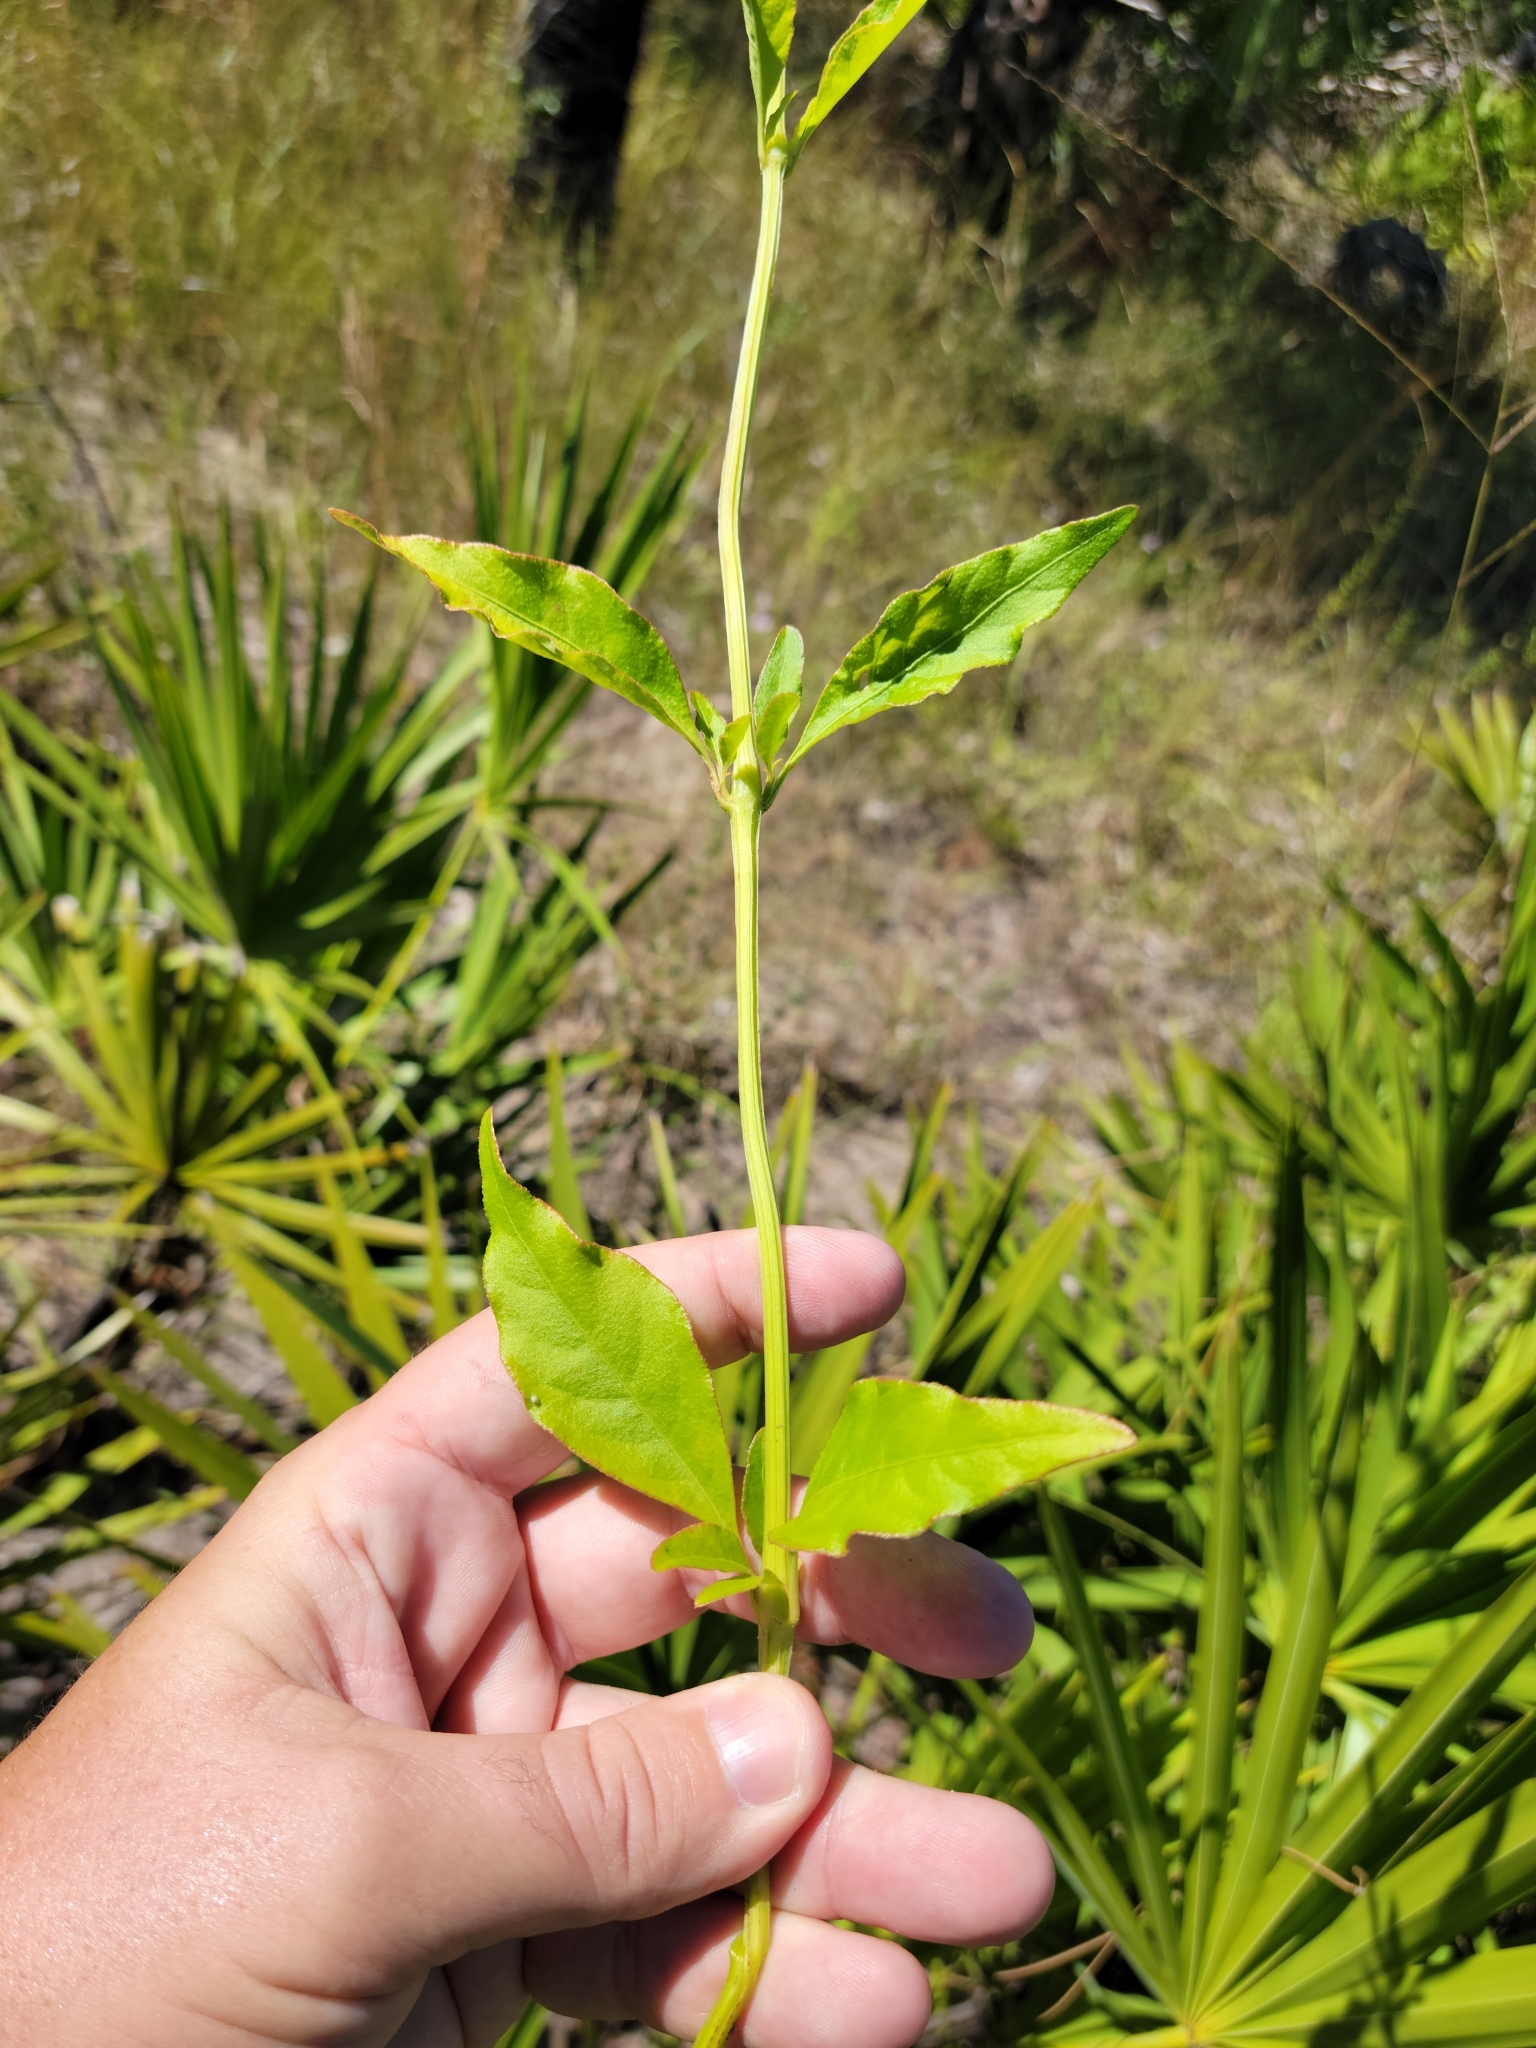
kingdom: Plantae
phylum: Tracheophyta
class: Magnoliopsida
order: Caryophyllales
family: Amaranthaceae
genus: Iresine
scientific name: Iresine diffusa
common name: Juba's-bush
